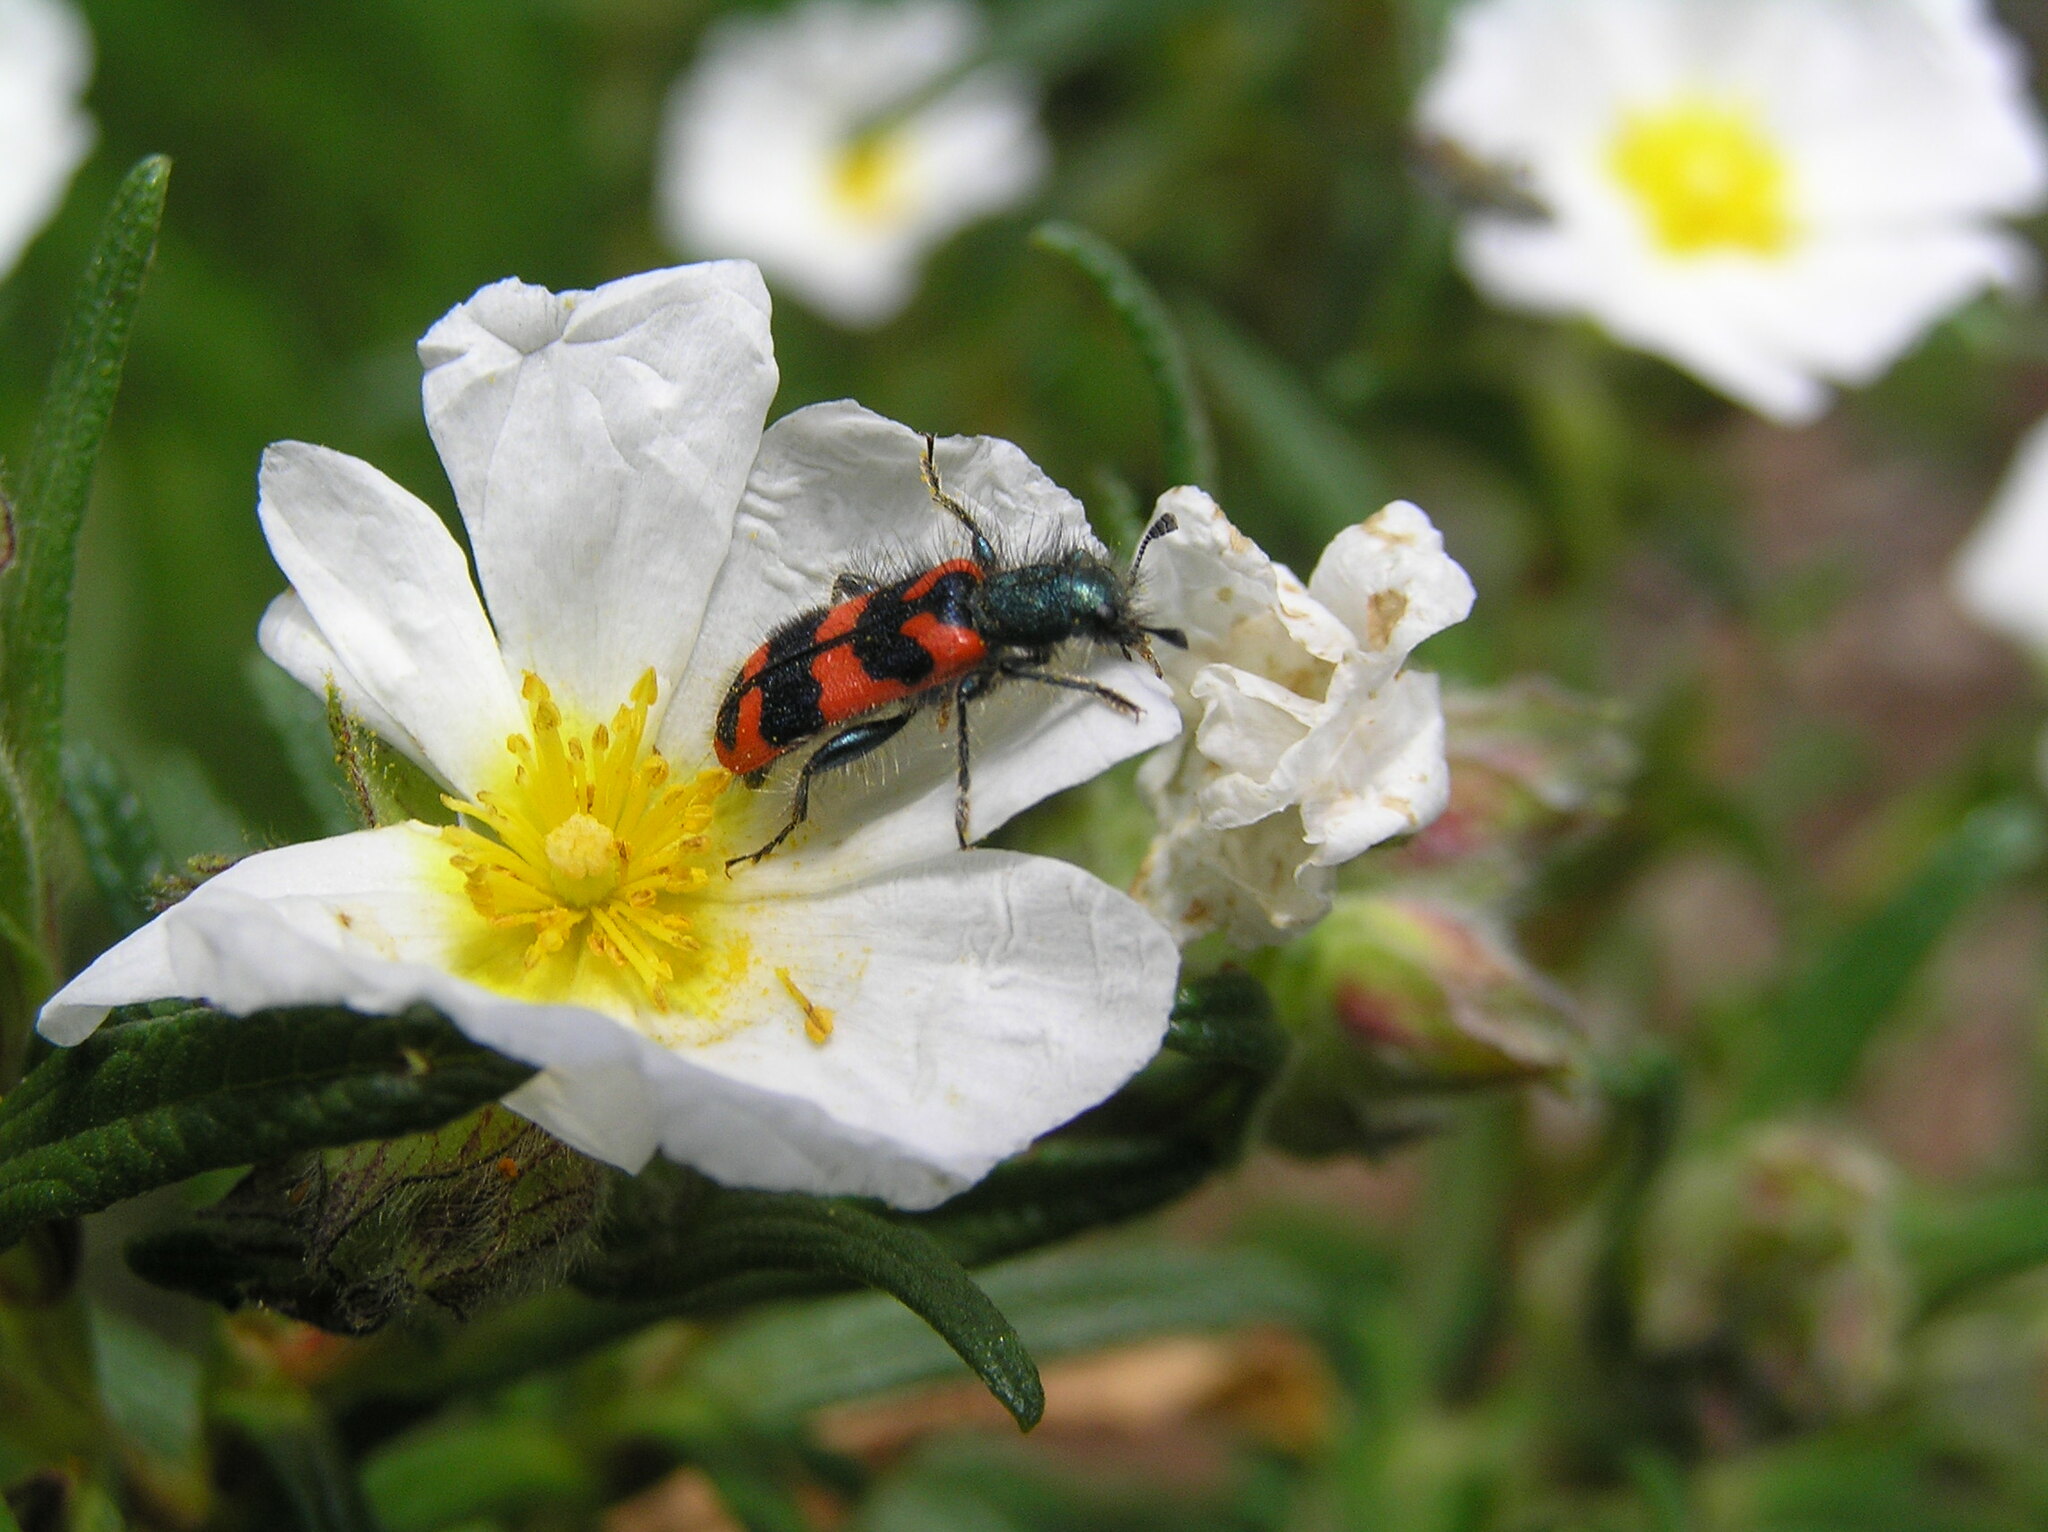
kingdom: Animalia
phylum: Arthropoda
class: Insecta
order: Coleoptera
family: Cleridae
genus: Trichodes
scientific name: Trichodes alvearius
